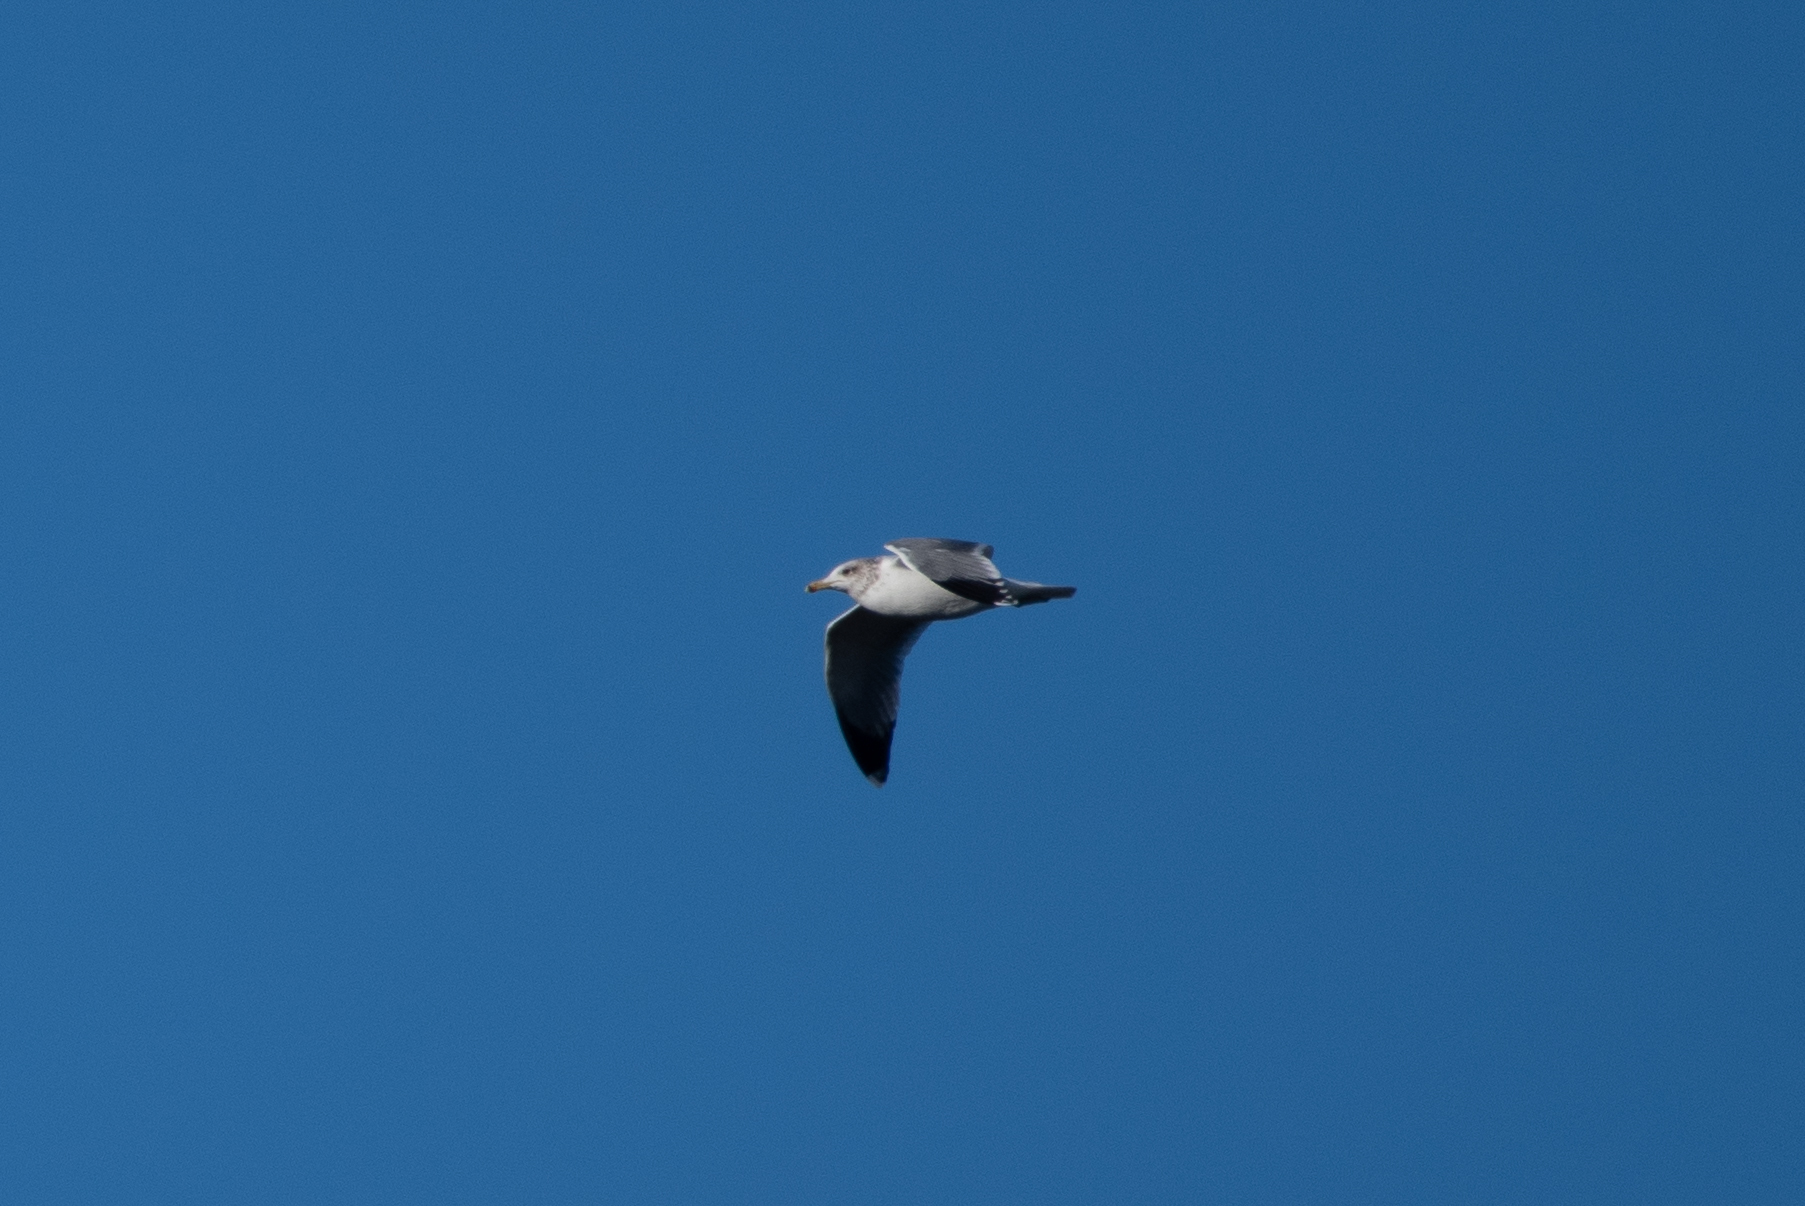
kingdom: Animalia
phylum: Chordata
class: Aves
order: Charadriiformes
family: Laridae
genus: Larus
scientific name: Larus californicus
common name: California gull
